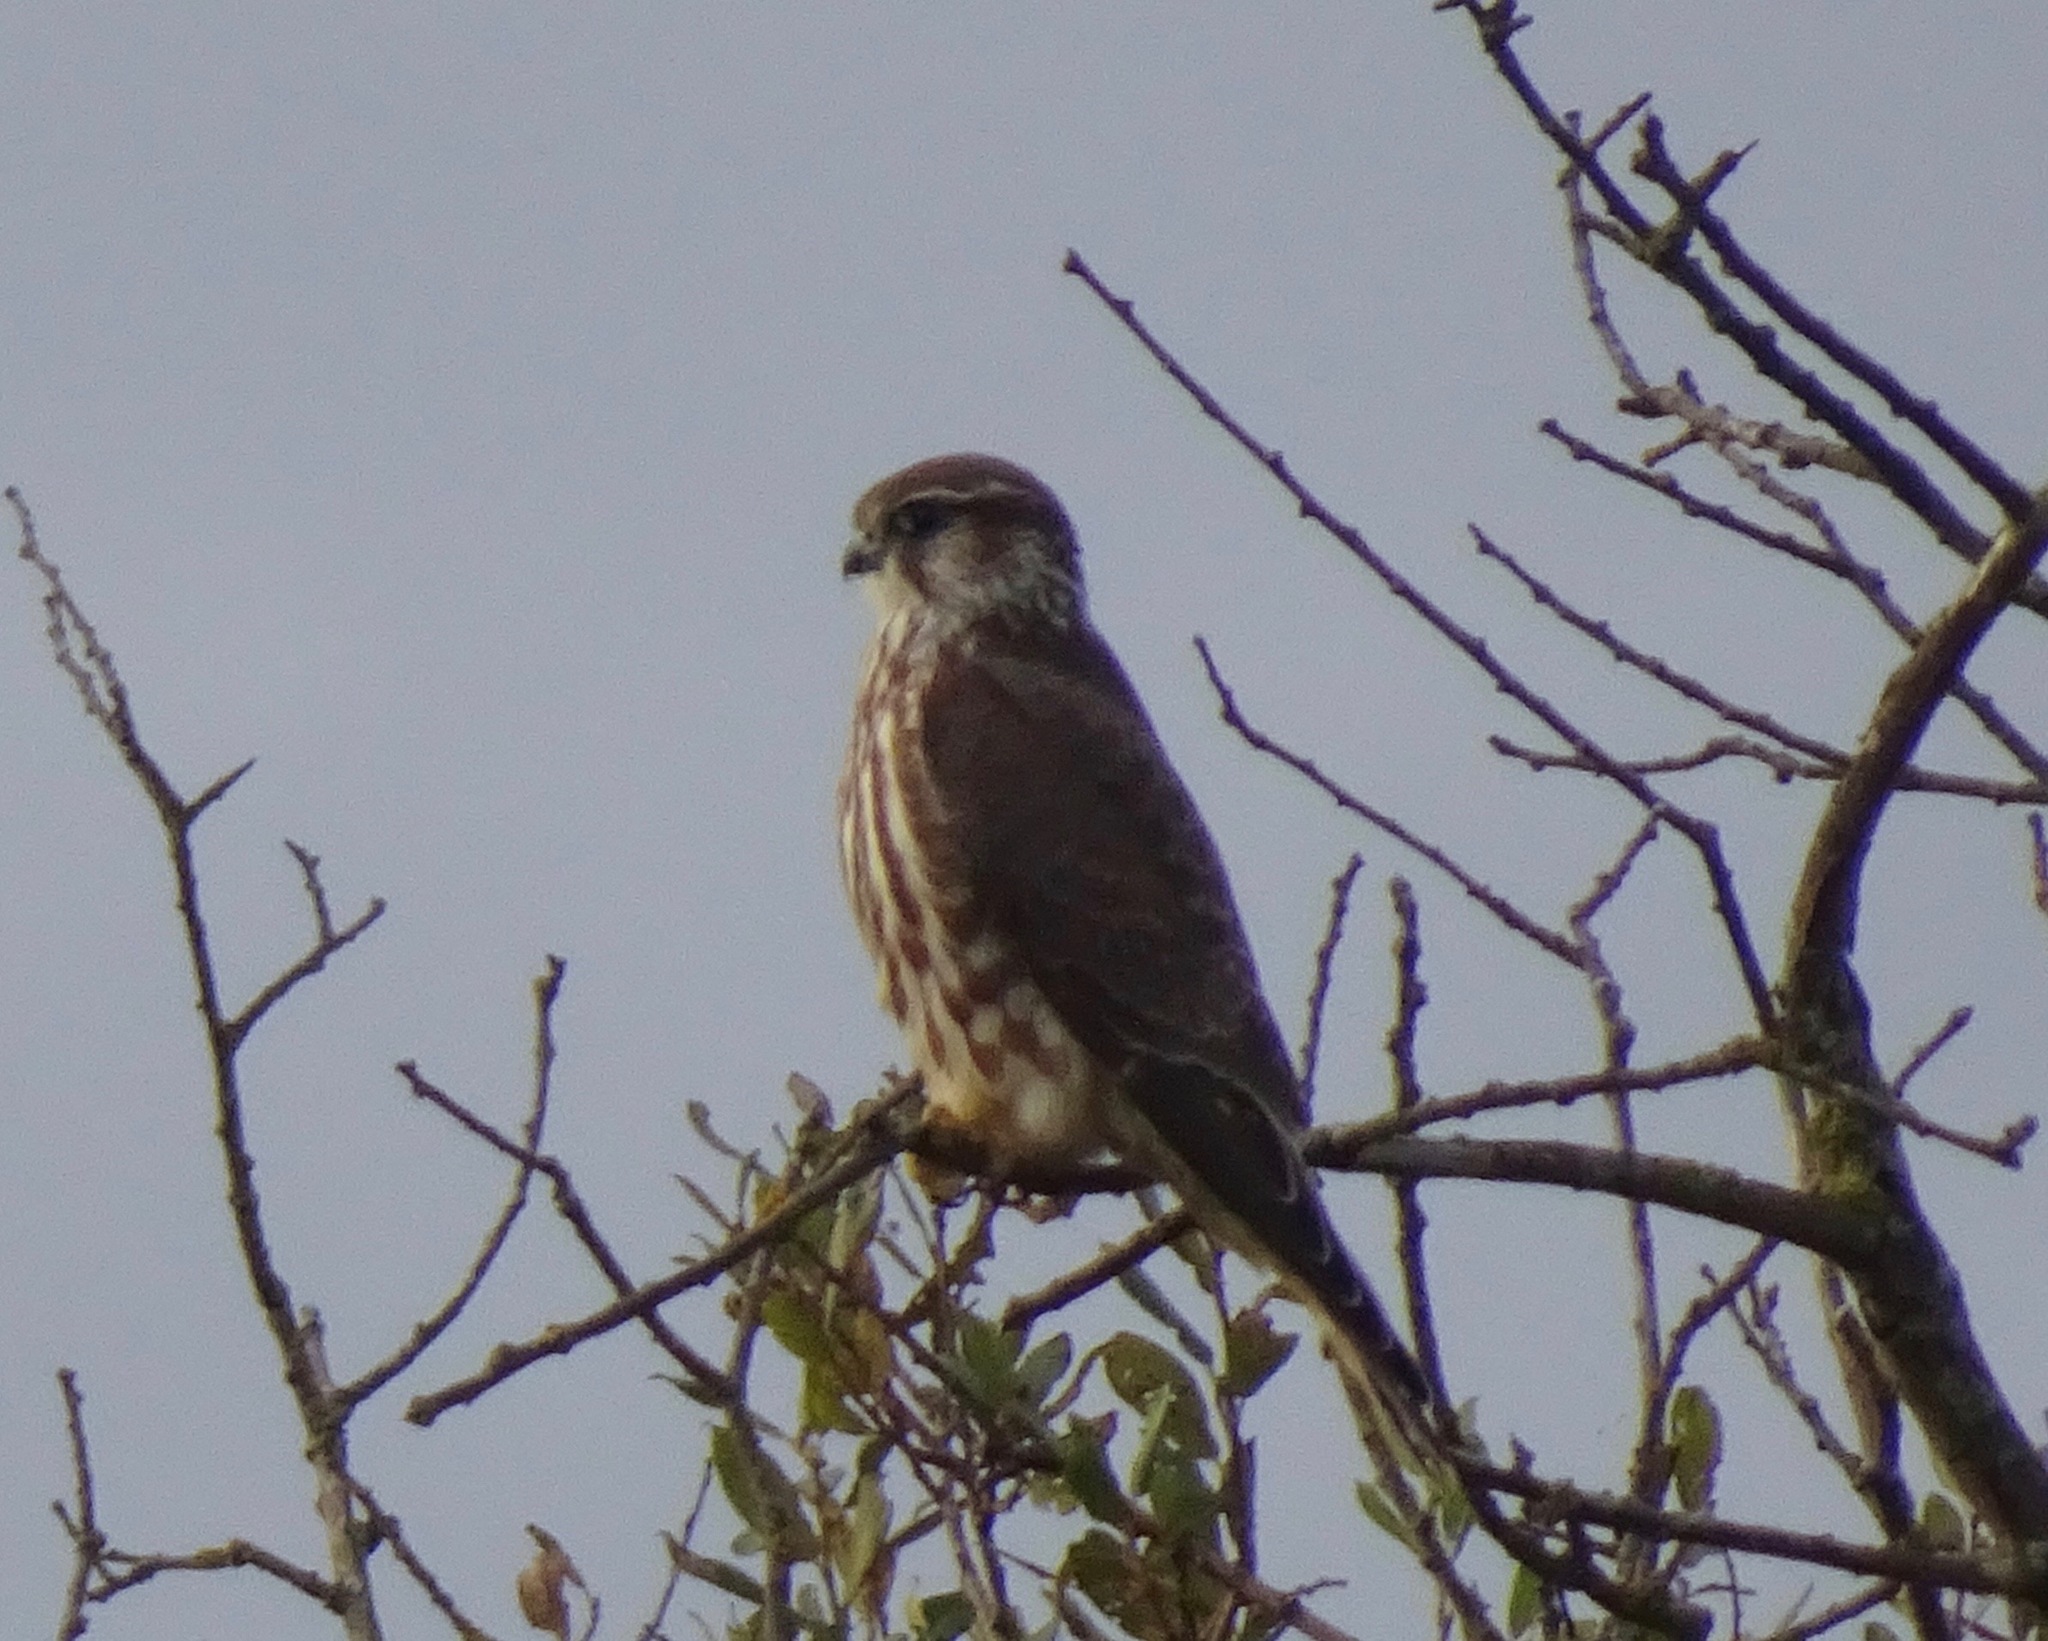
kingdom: Animalia
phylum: Chordata
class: Aves
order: Falconiformes
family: Falconidae
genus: Falco
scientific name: Falco columbarius
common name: Merlin
